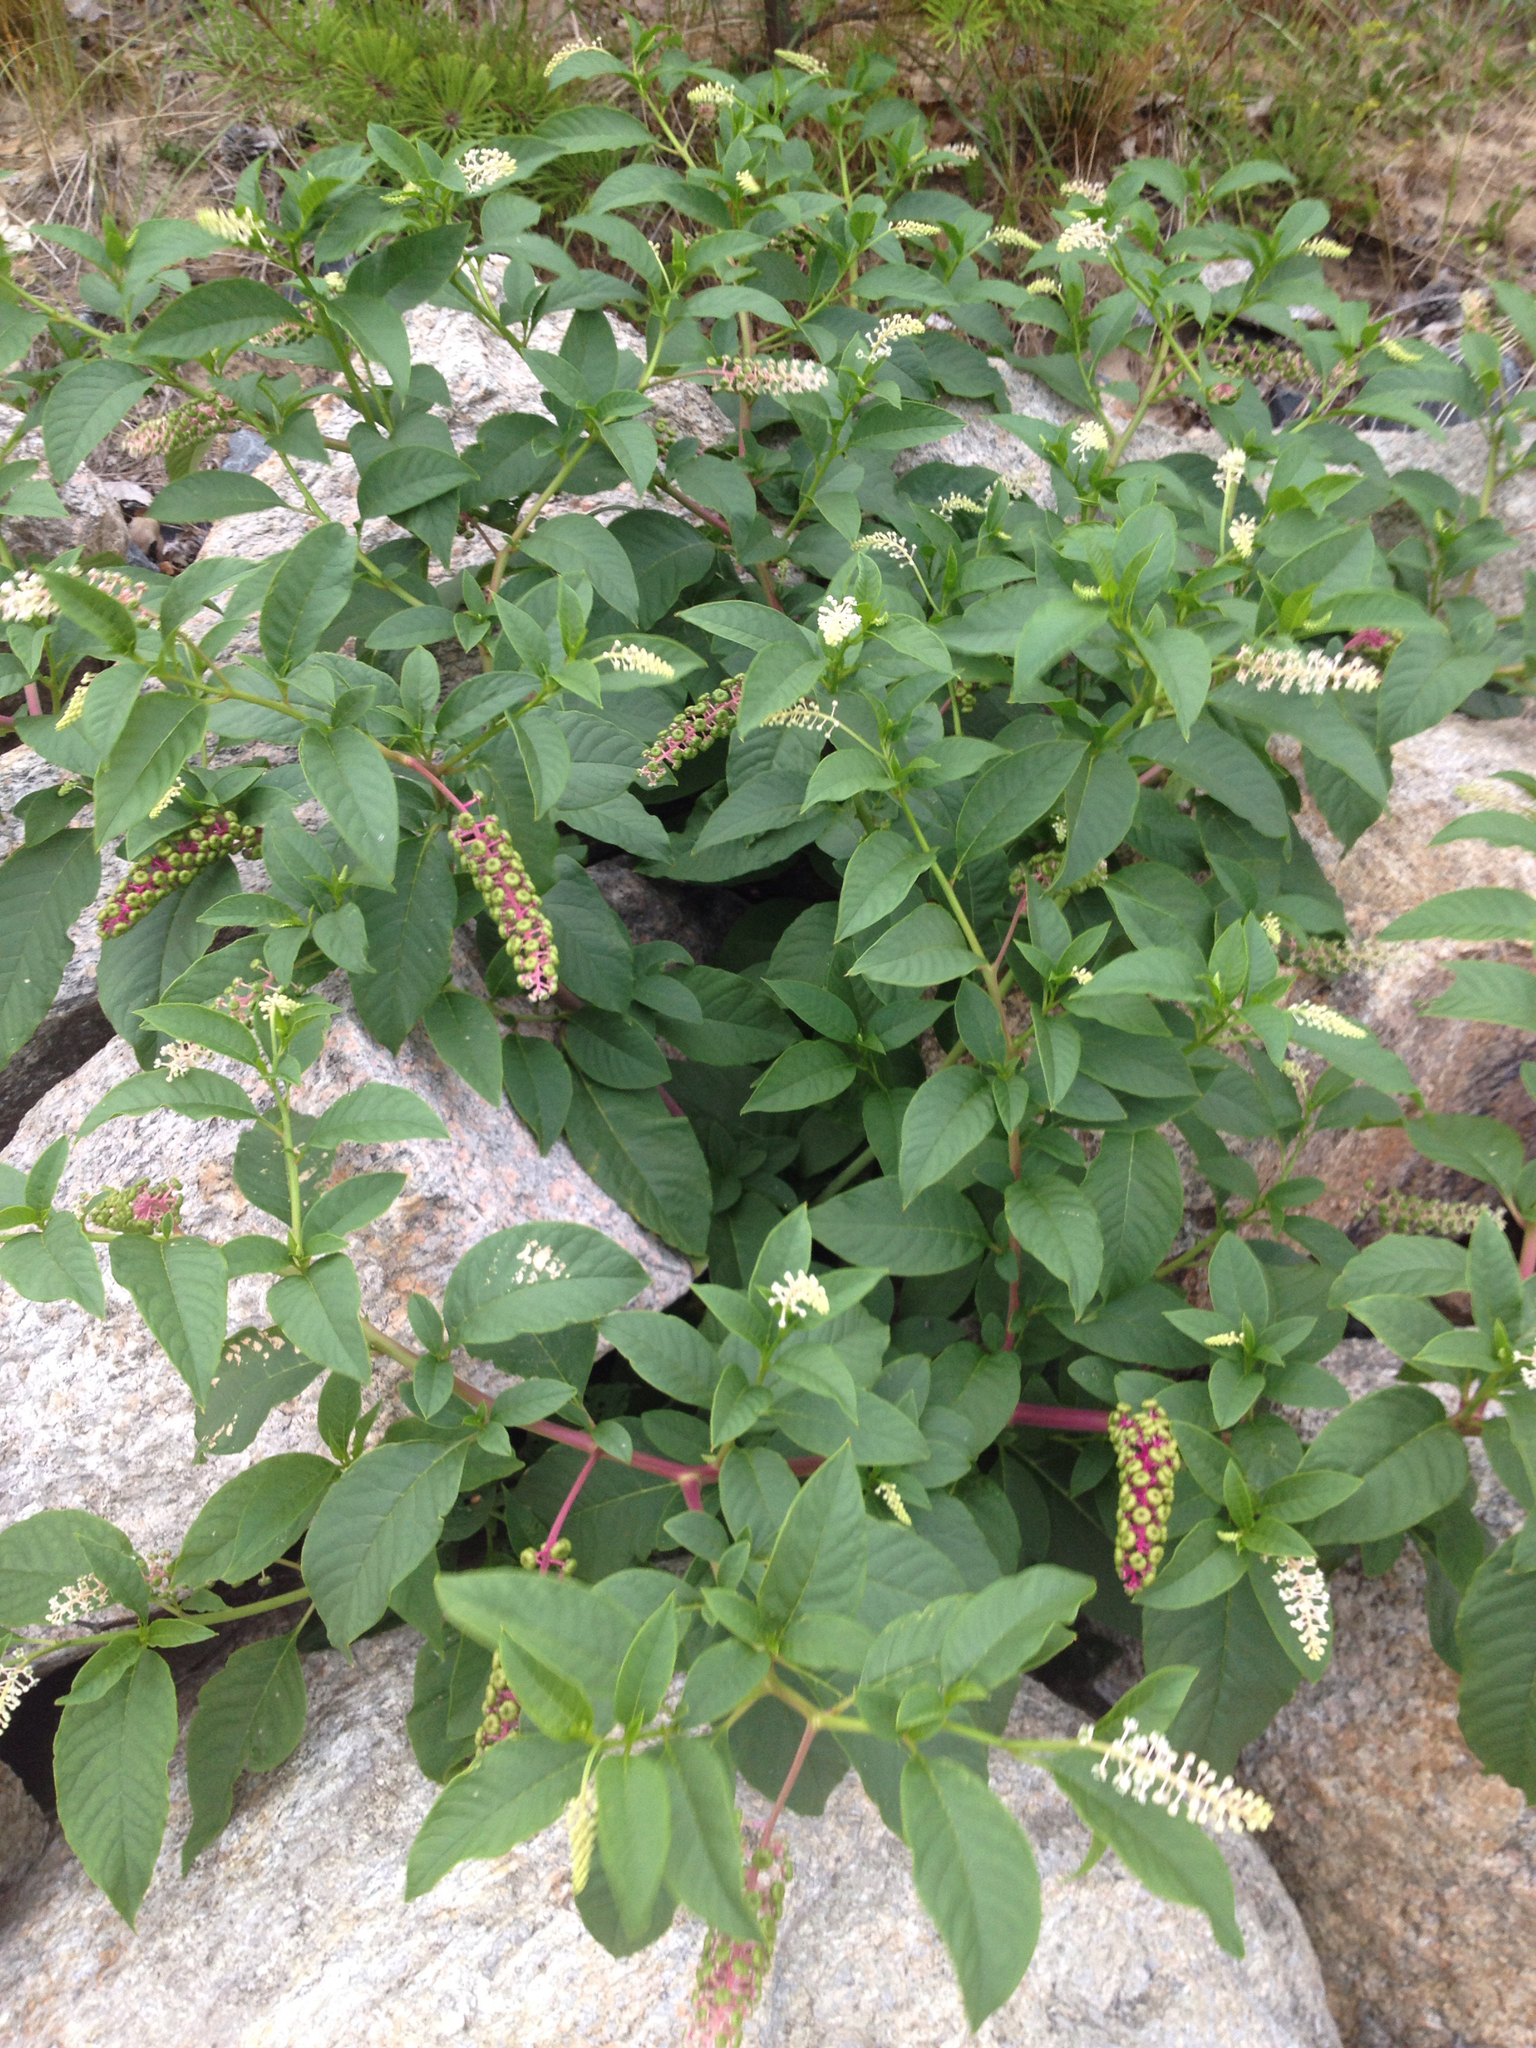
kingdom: Plantae
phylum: Tracheophyta
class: Magnoliopsida
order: Caryophyllales
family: Phytolaccaceae
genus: Phytolacca
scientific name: Phytolacca americana
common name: American pokeweed
